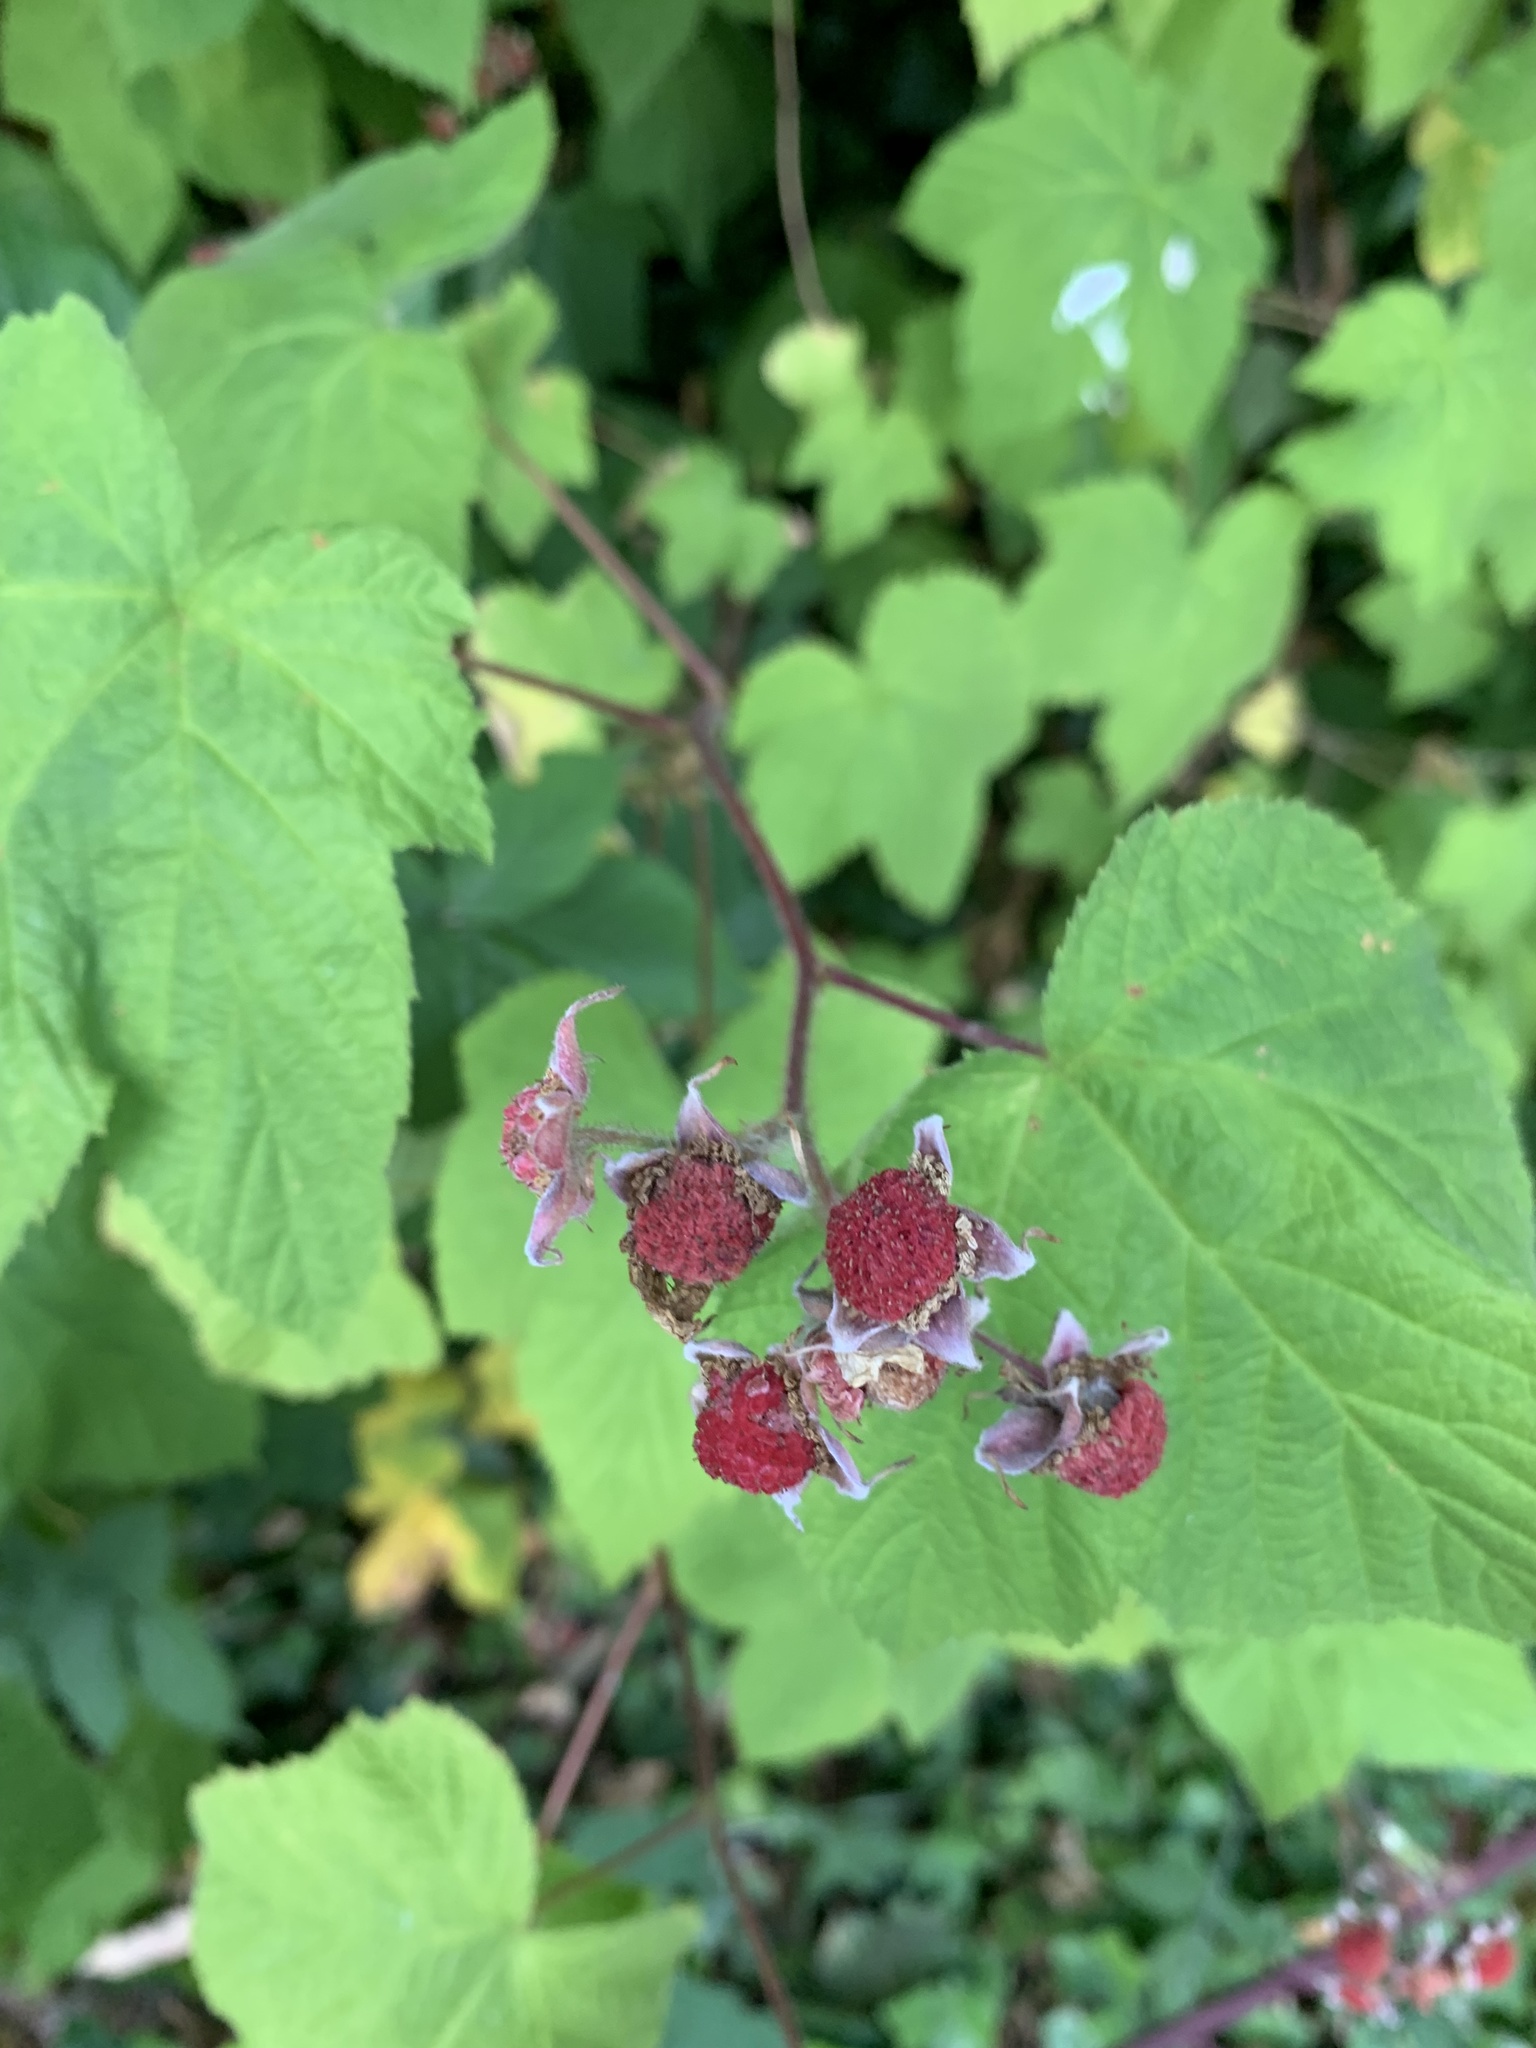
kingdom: Plantae
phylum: Tracheophyta
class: Magnoliopsida
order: Rosales
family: Rosaceae
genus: Rubus
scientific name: Rubus parviflorus
